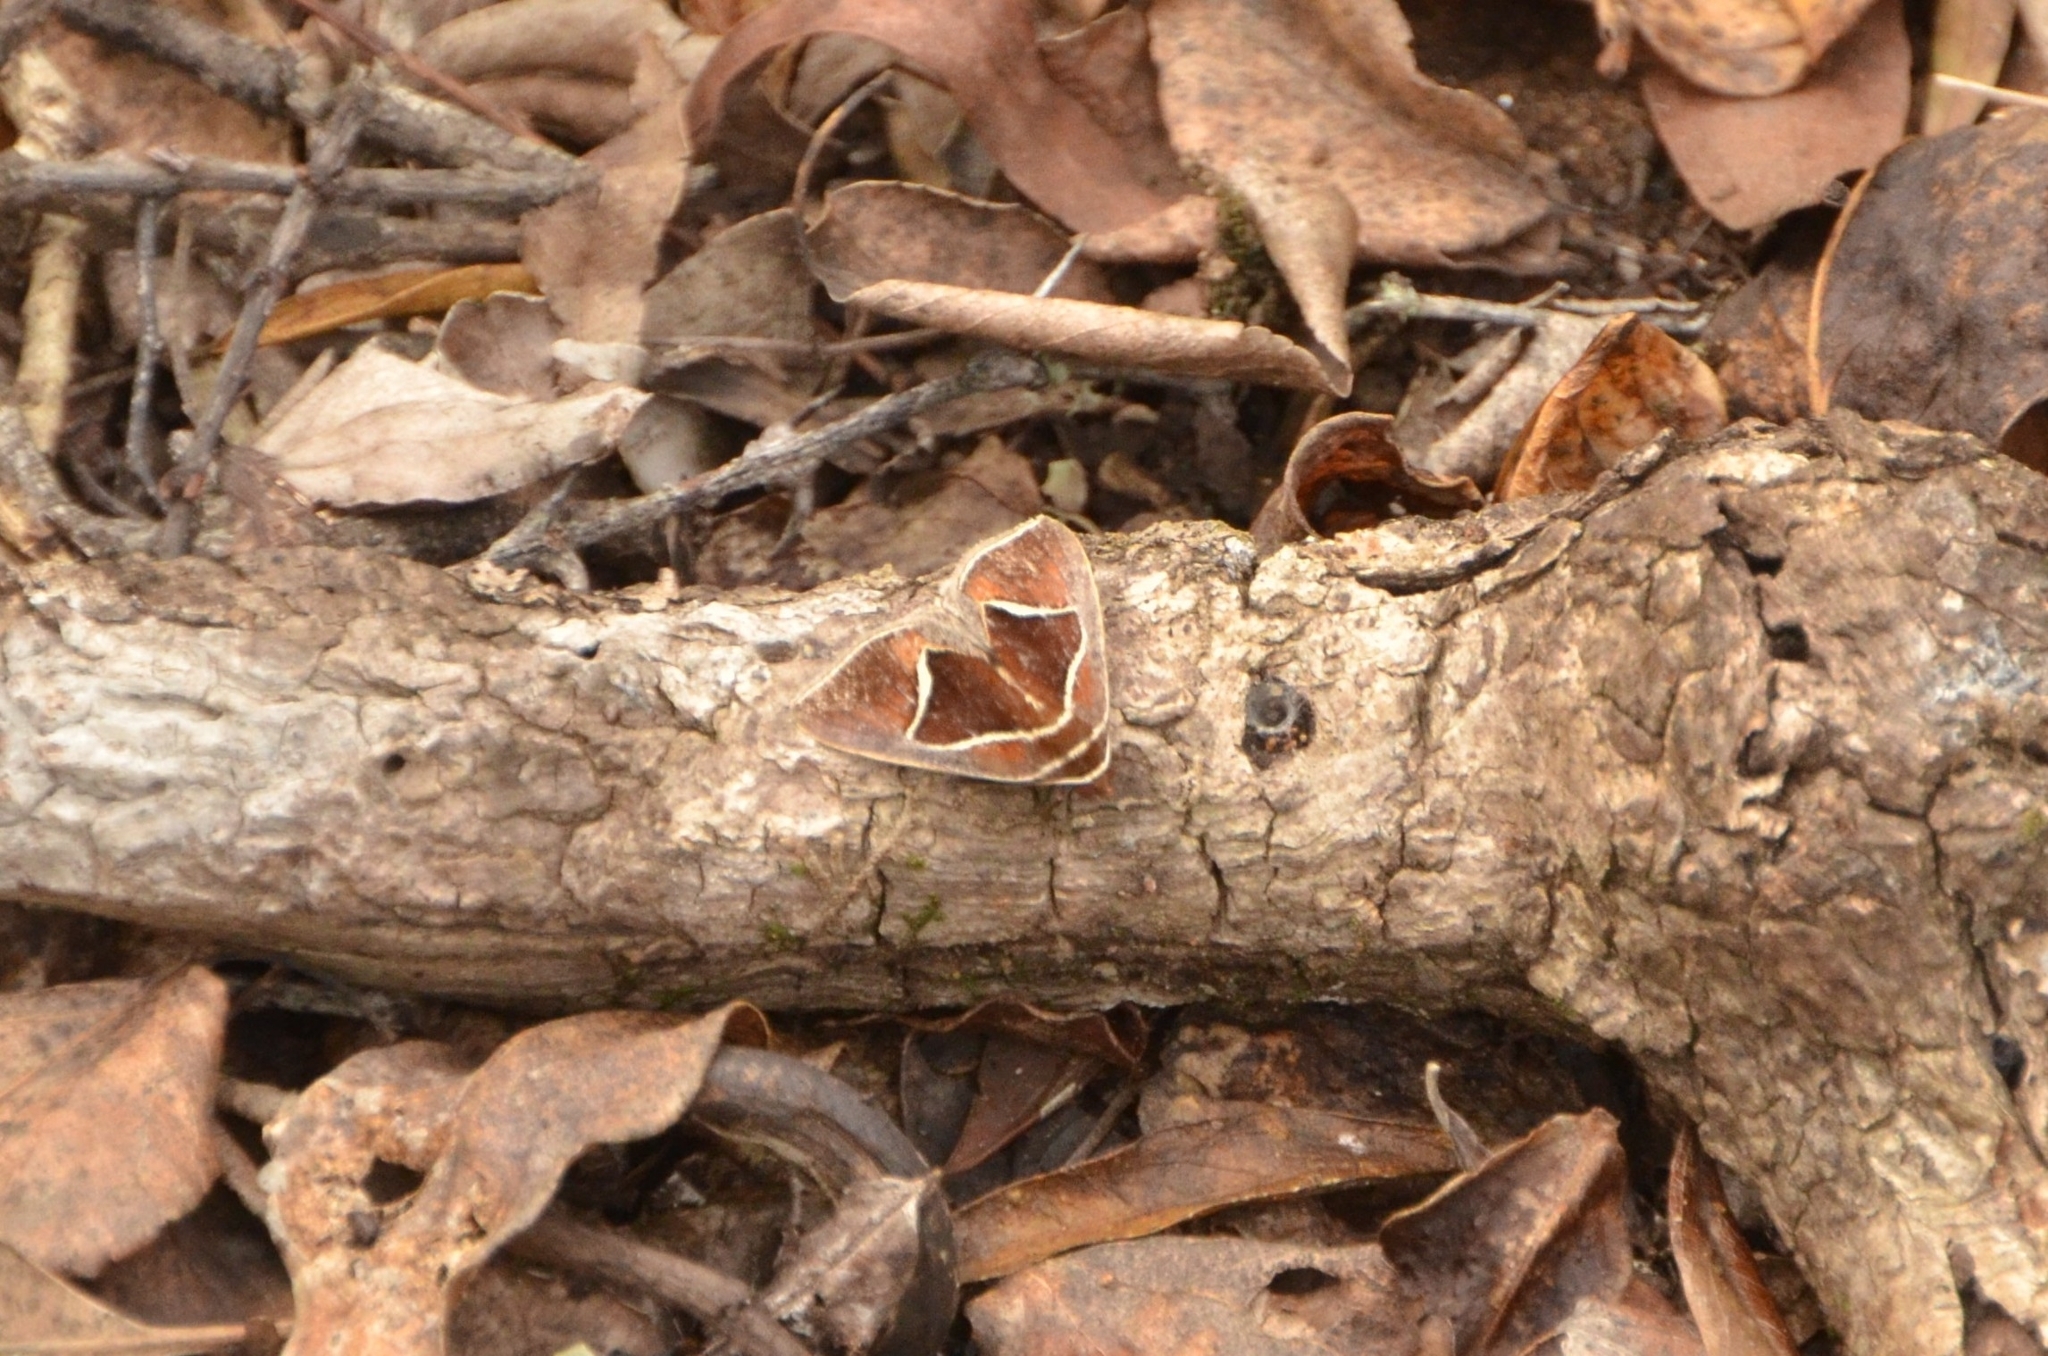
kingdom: Animalia
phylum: Arthropoda
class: Insecta
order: Lepidoptera
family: Erebidae
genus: Agamana
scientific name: Agamana pentagonalis
